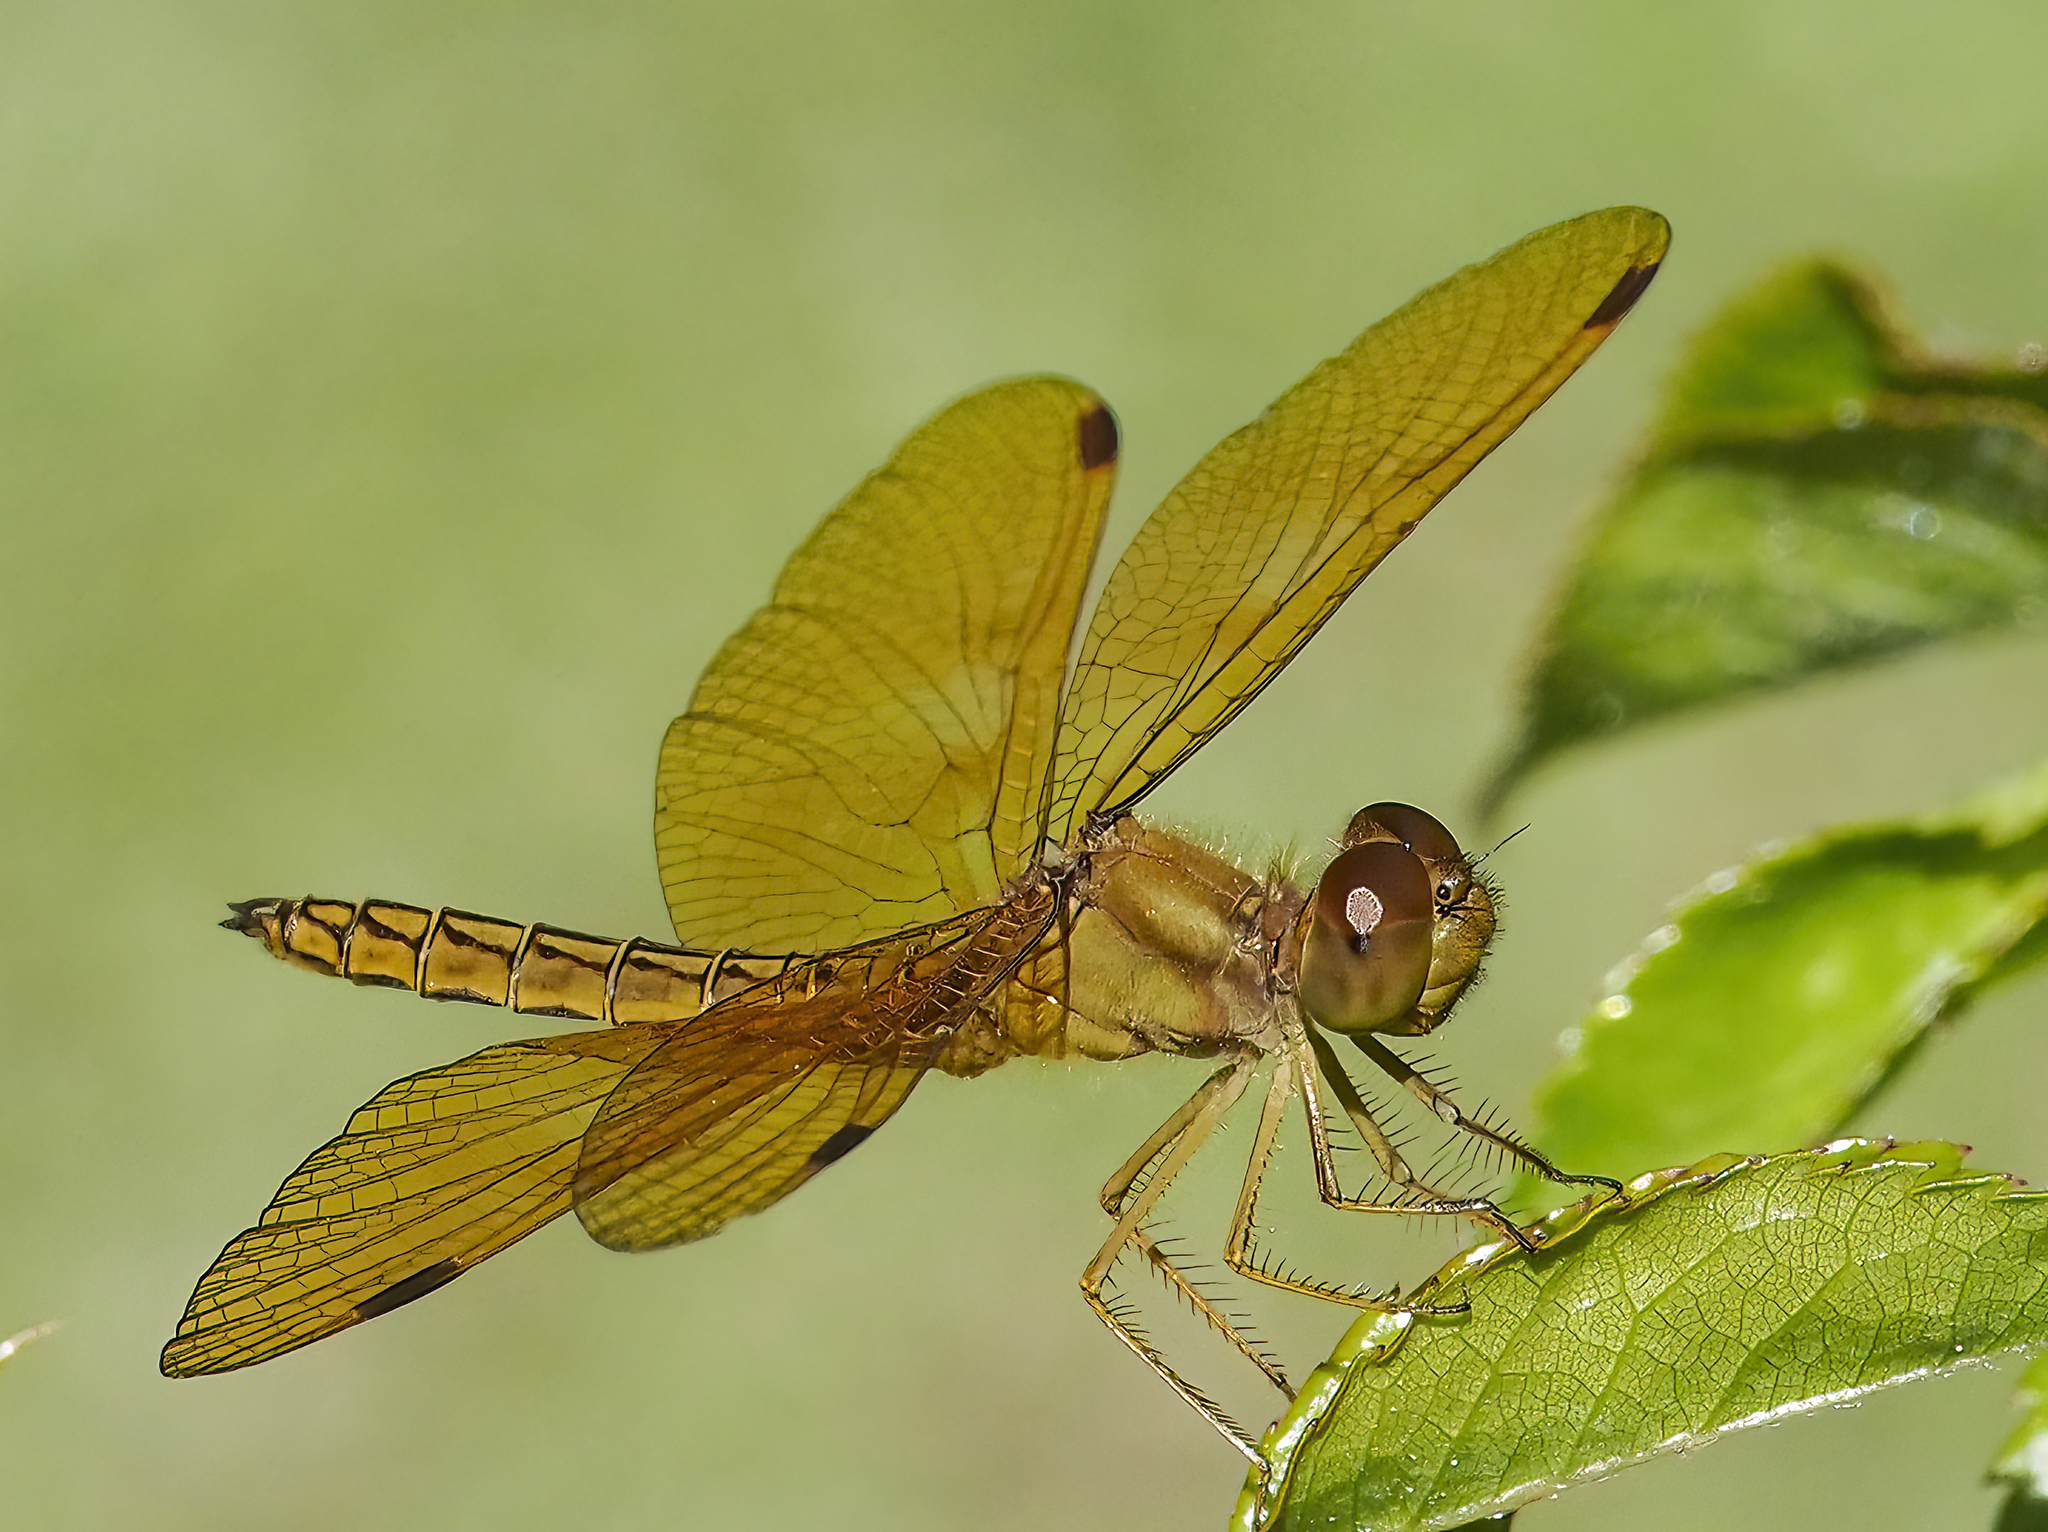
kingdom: Animalia
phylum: Arthropoda
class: Insecta
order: Odonata
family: Libellulidae
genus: Perithemis
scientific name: Perithemis icteroptera
